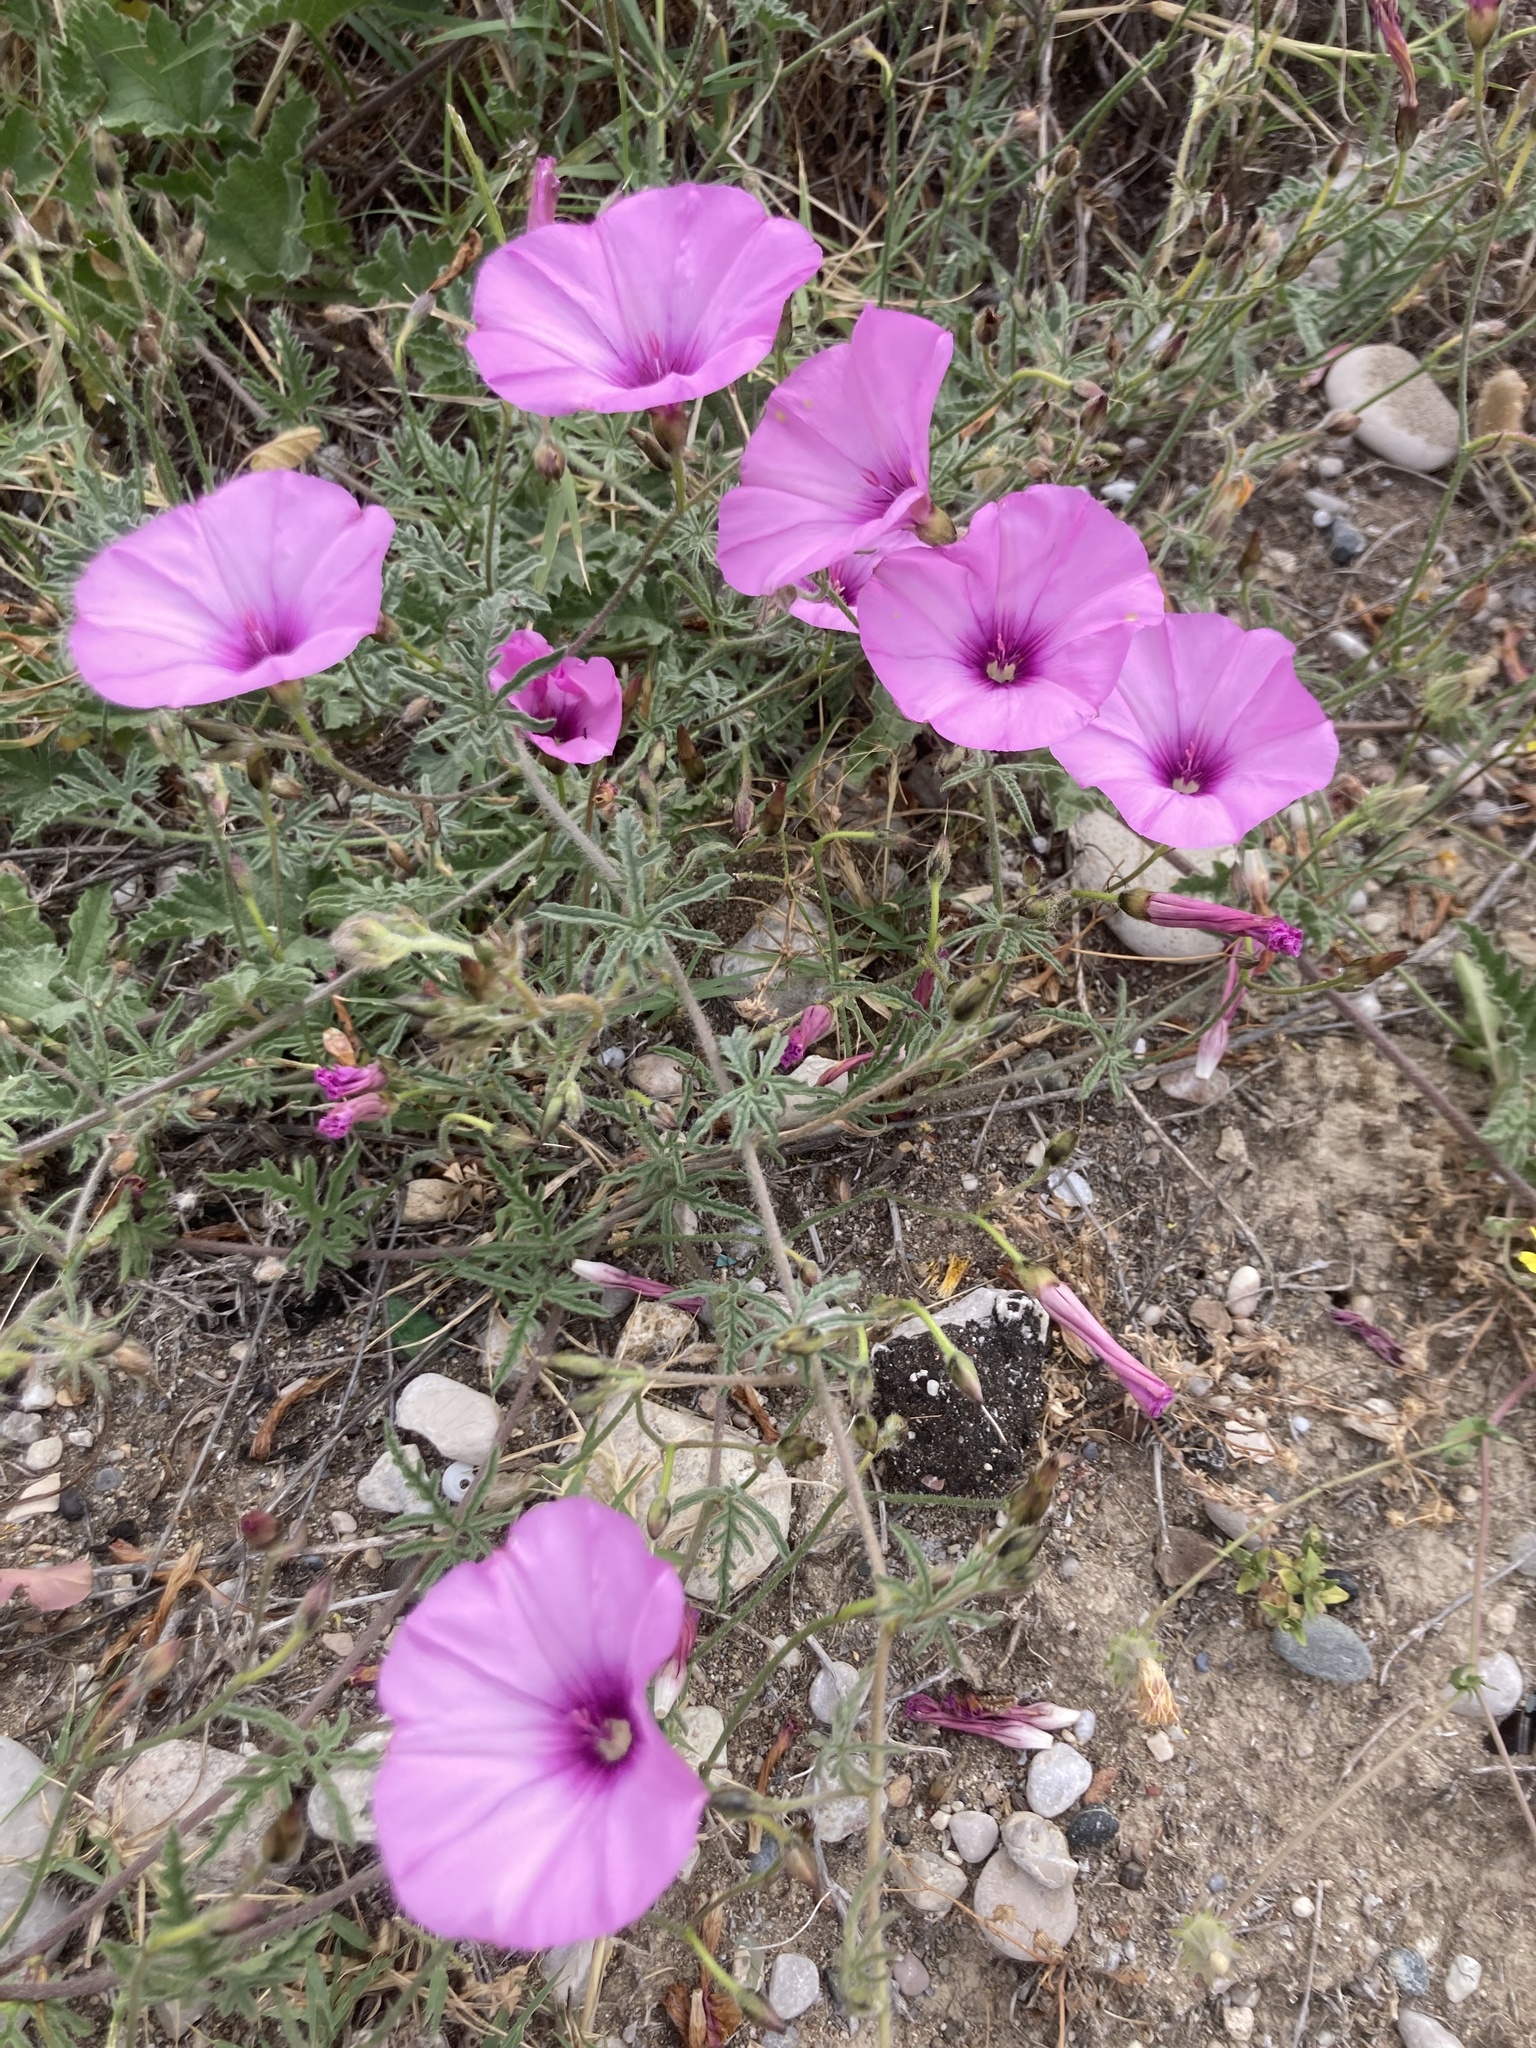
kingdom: Plantae
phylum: Tracheophyta
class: Magnoliopsida
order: Solanales
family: Convolvulaceae
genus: Convolvulus
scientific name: Convolvulus althaeoides
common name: Mallow bindweed
